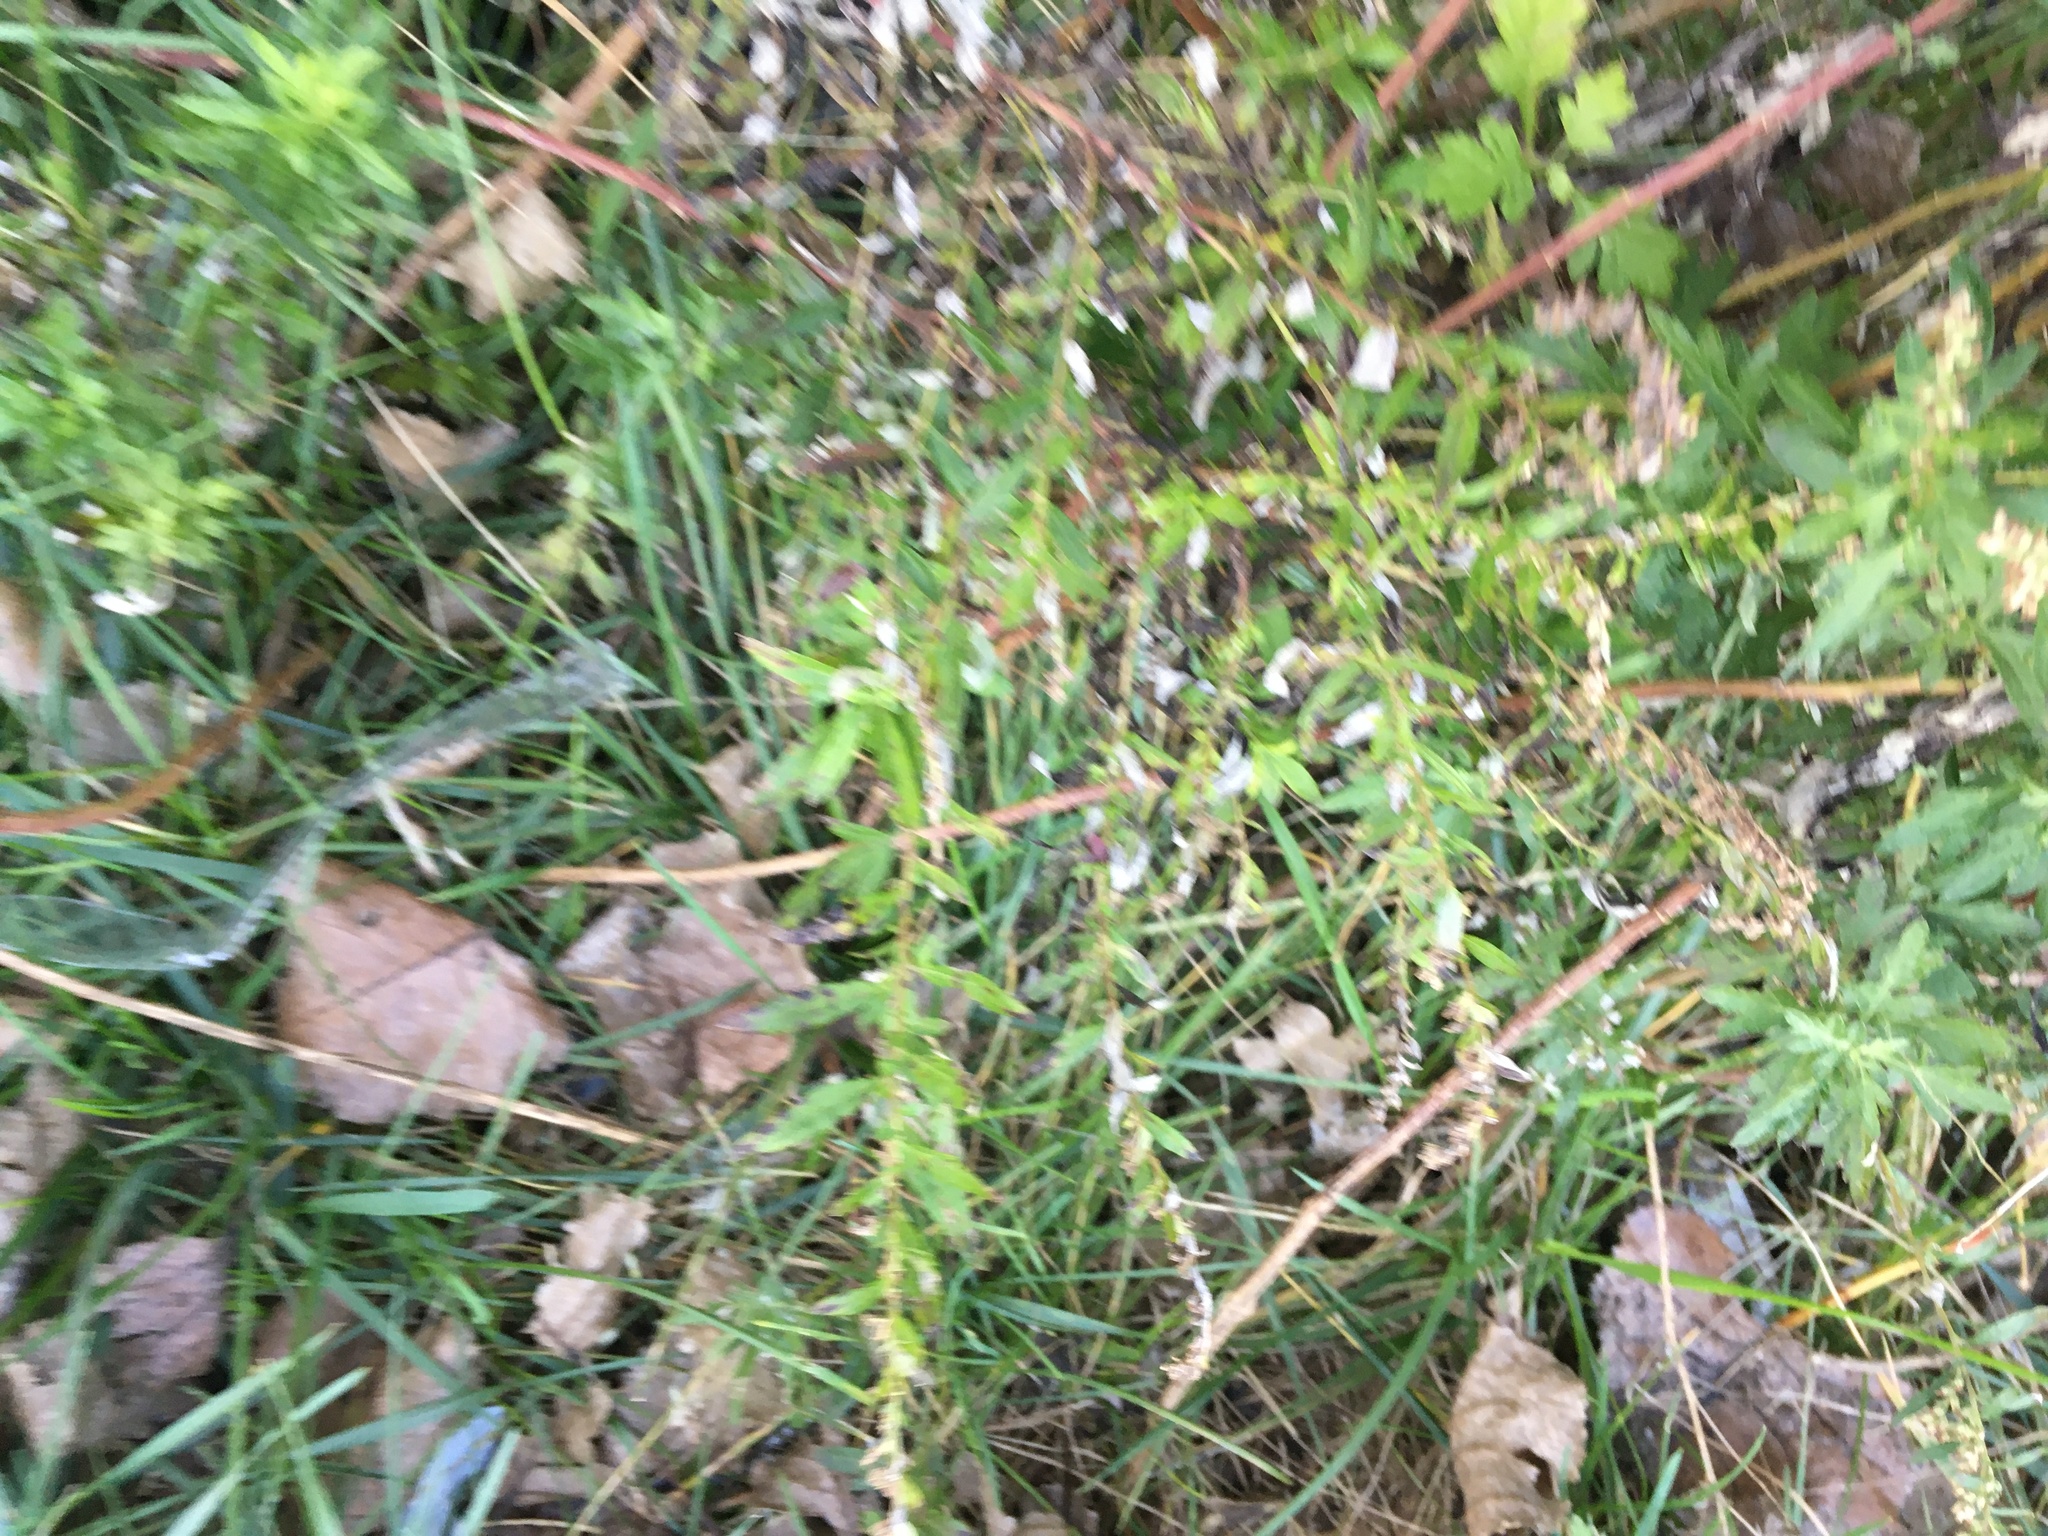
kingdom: Plantae
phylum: Tracheophyta
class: Magnoliopsida
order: Asterales
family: Asteraceae
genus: Artemisia
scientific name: Artemisia vulgaris
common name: Mugwort
